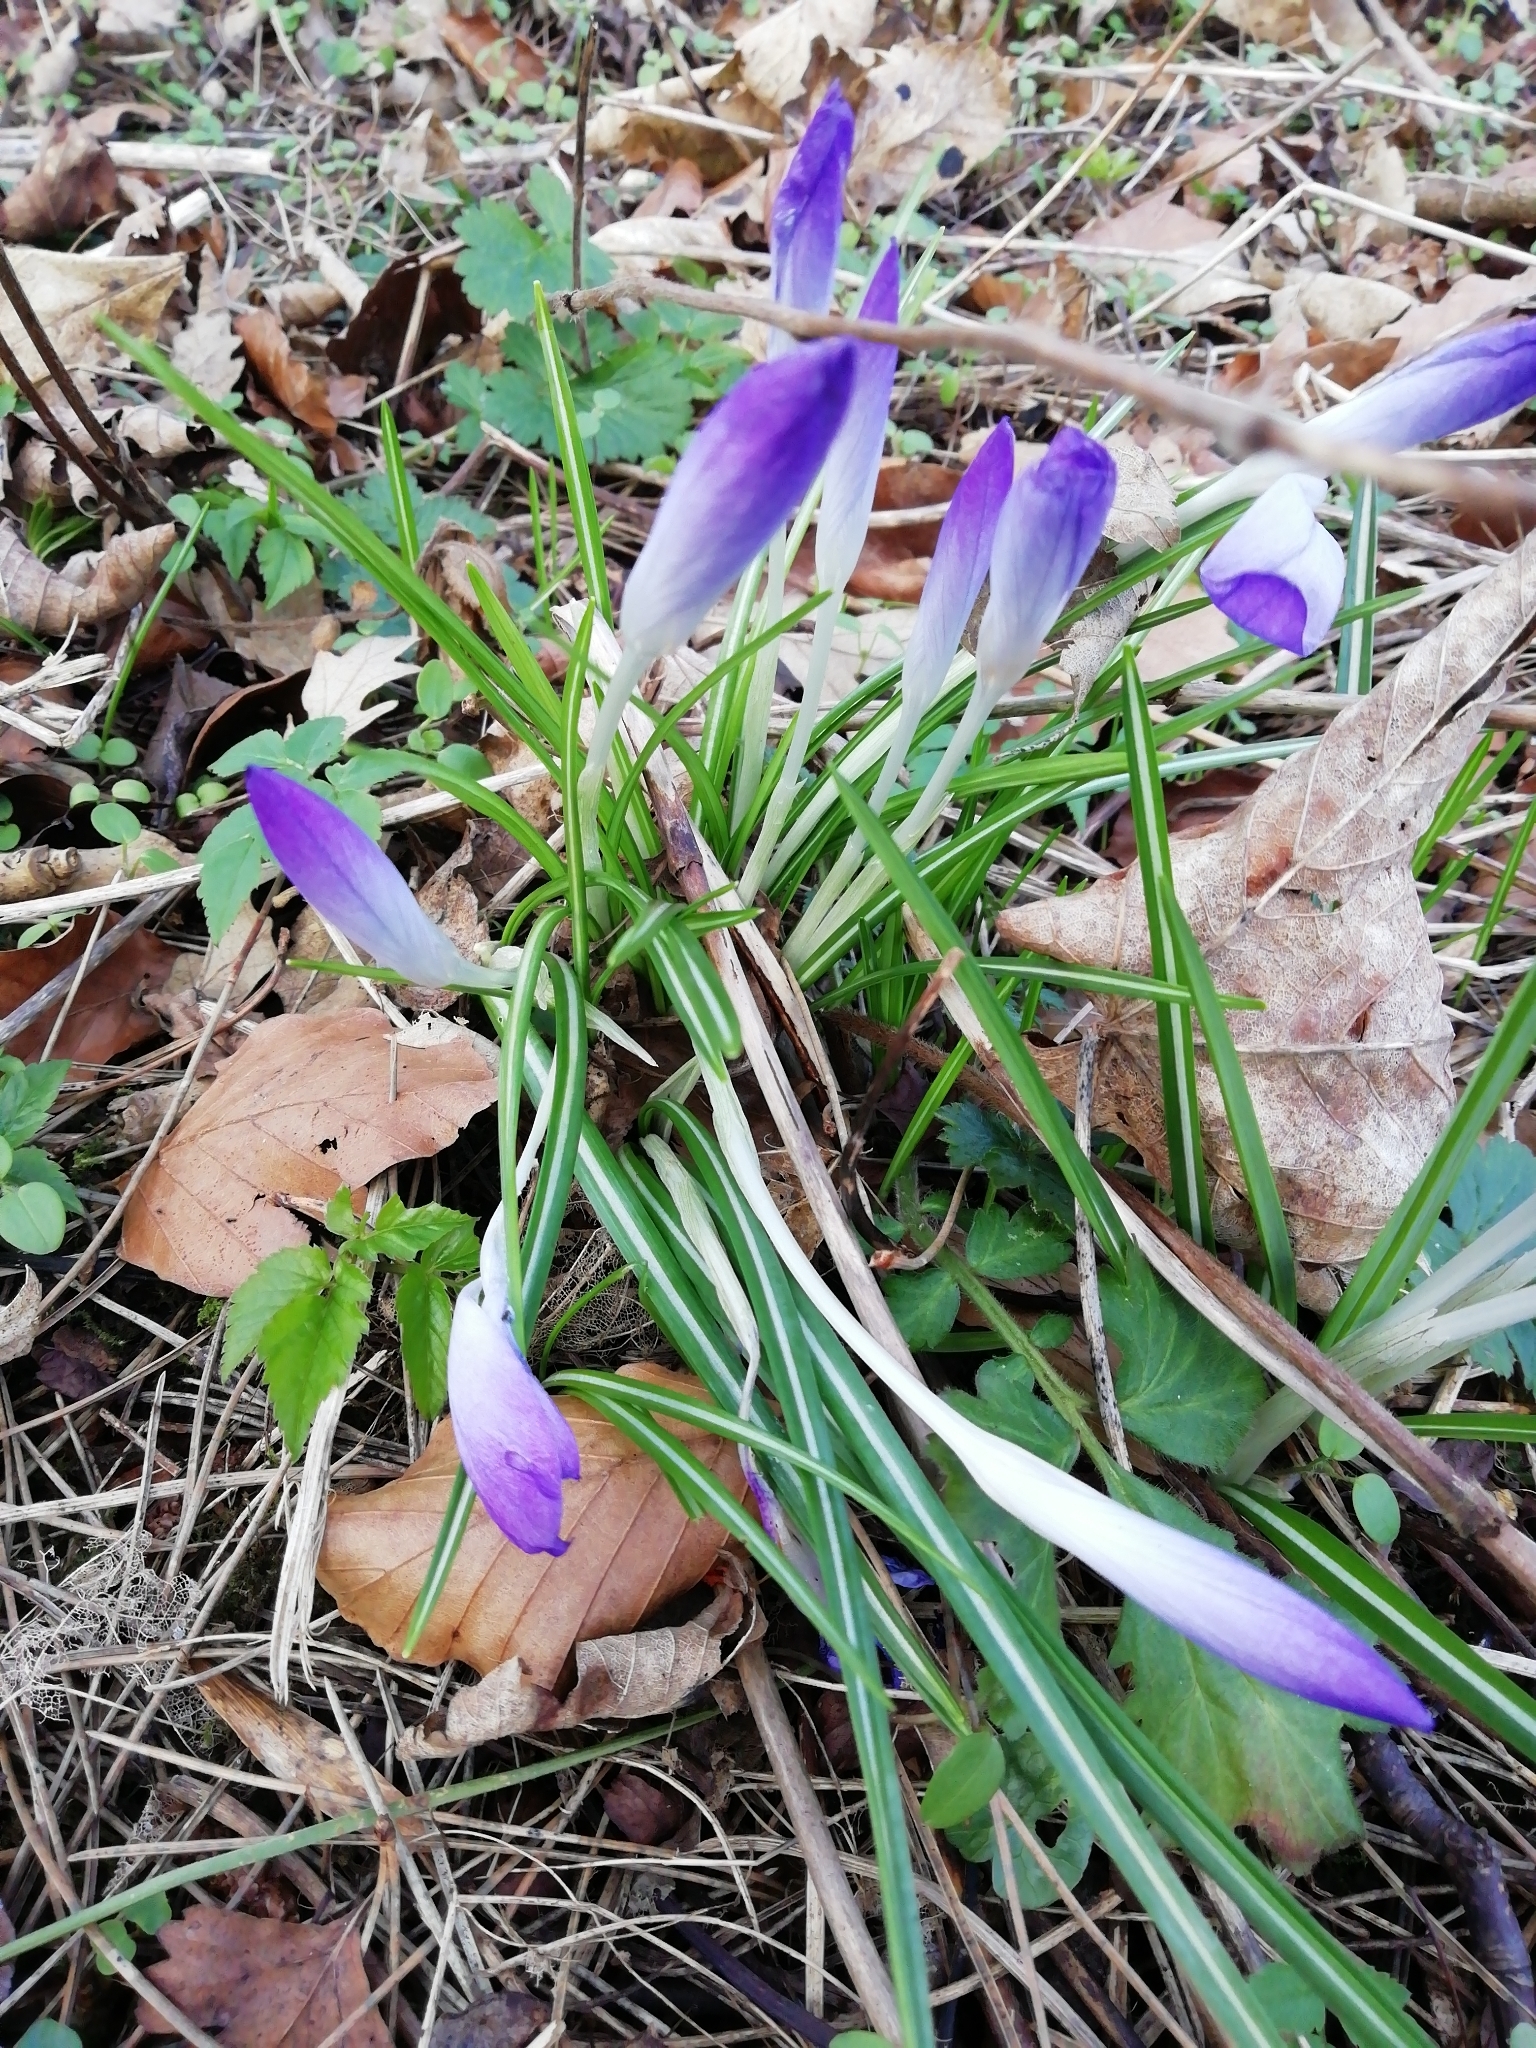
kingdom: Plantae
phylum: Tracheophyta
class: Liliopsida
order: Asparagales
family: Iridaceae
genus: Crocus
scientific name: Crocus tommasinianus
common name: Early crocus
